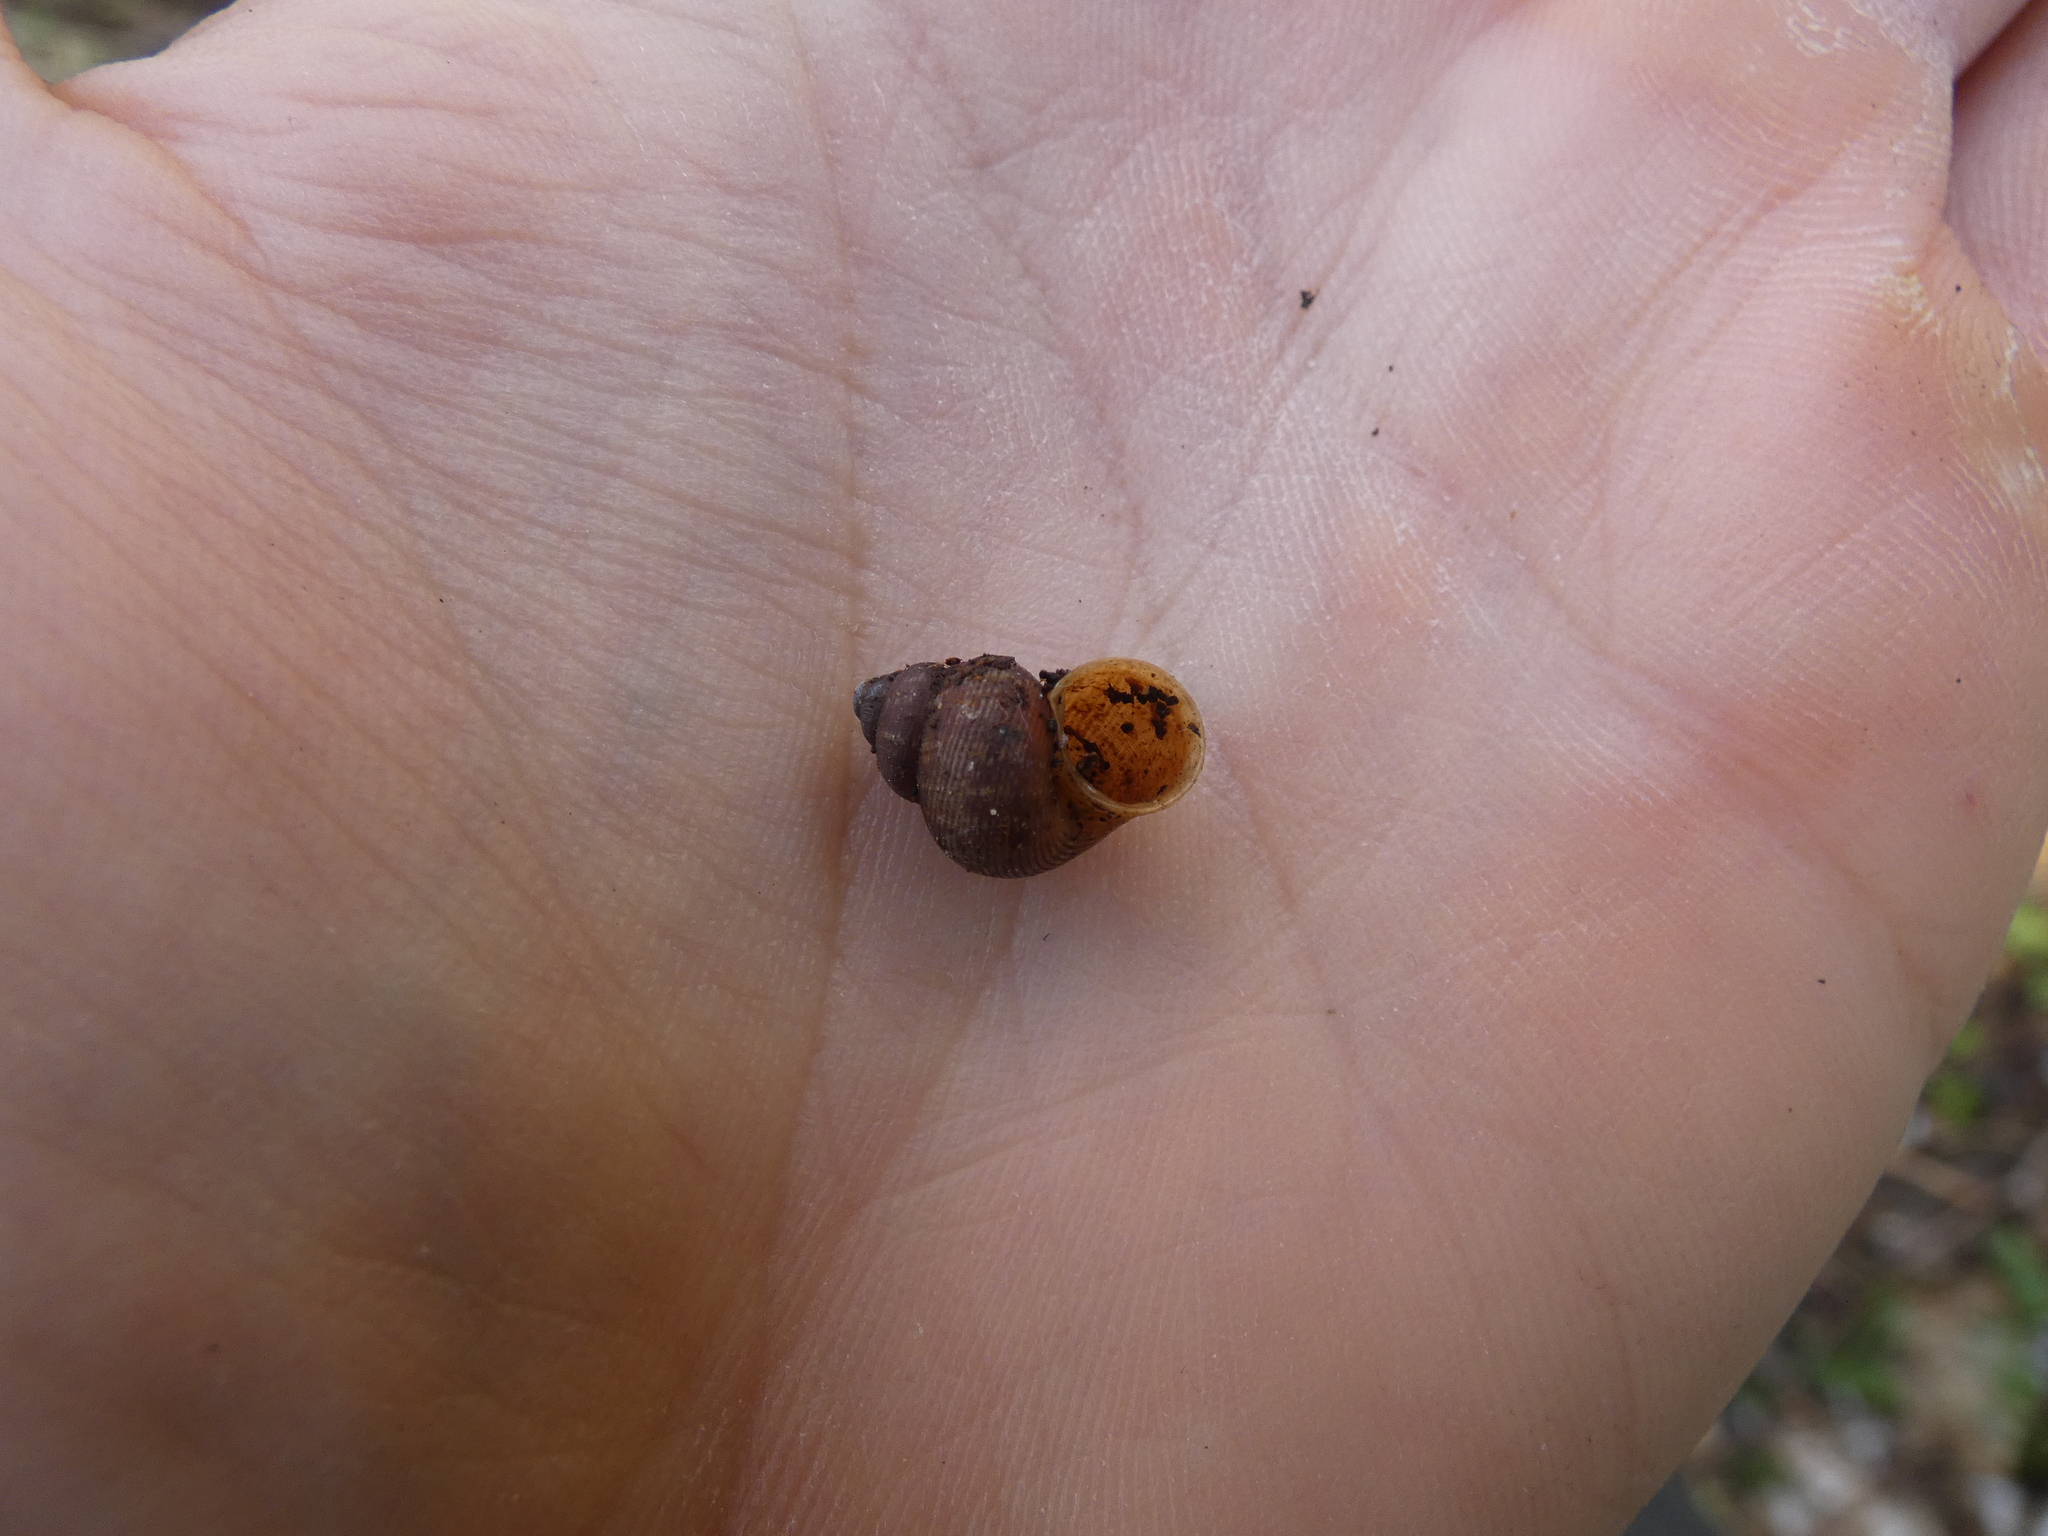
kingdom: Animalia
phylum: Mollusca
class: Gastropoda
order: Littorinimorpha
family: Pomatiidae
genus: Pomatias
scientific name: Pomatias elegans
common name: Red-mouthed snail
